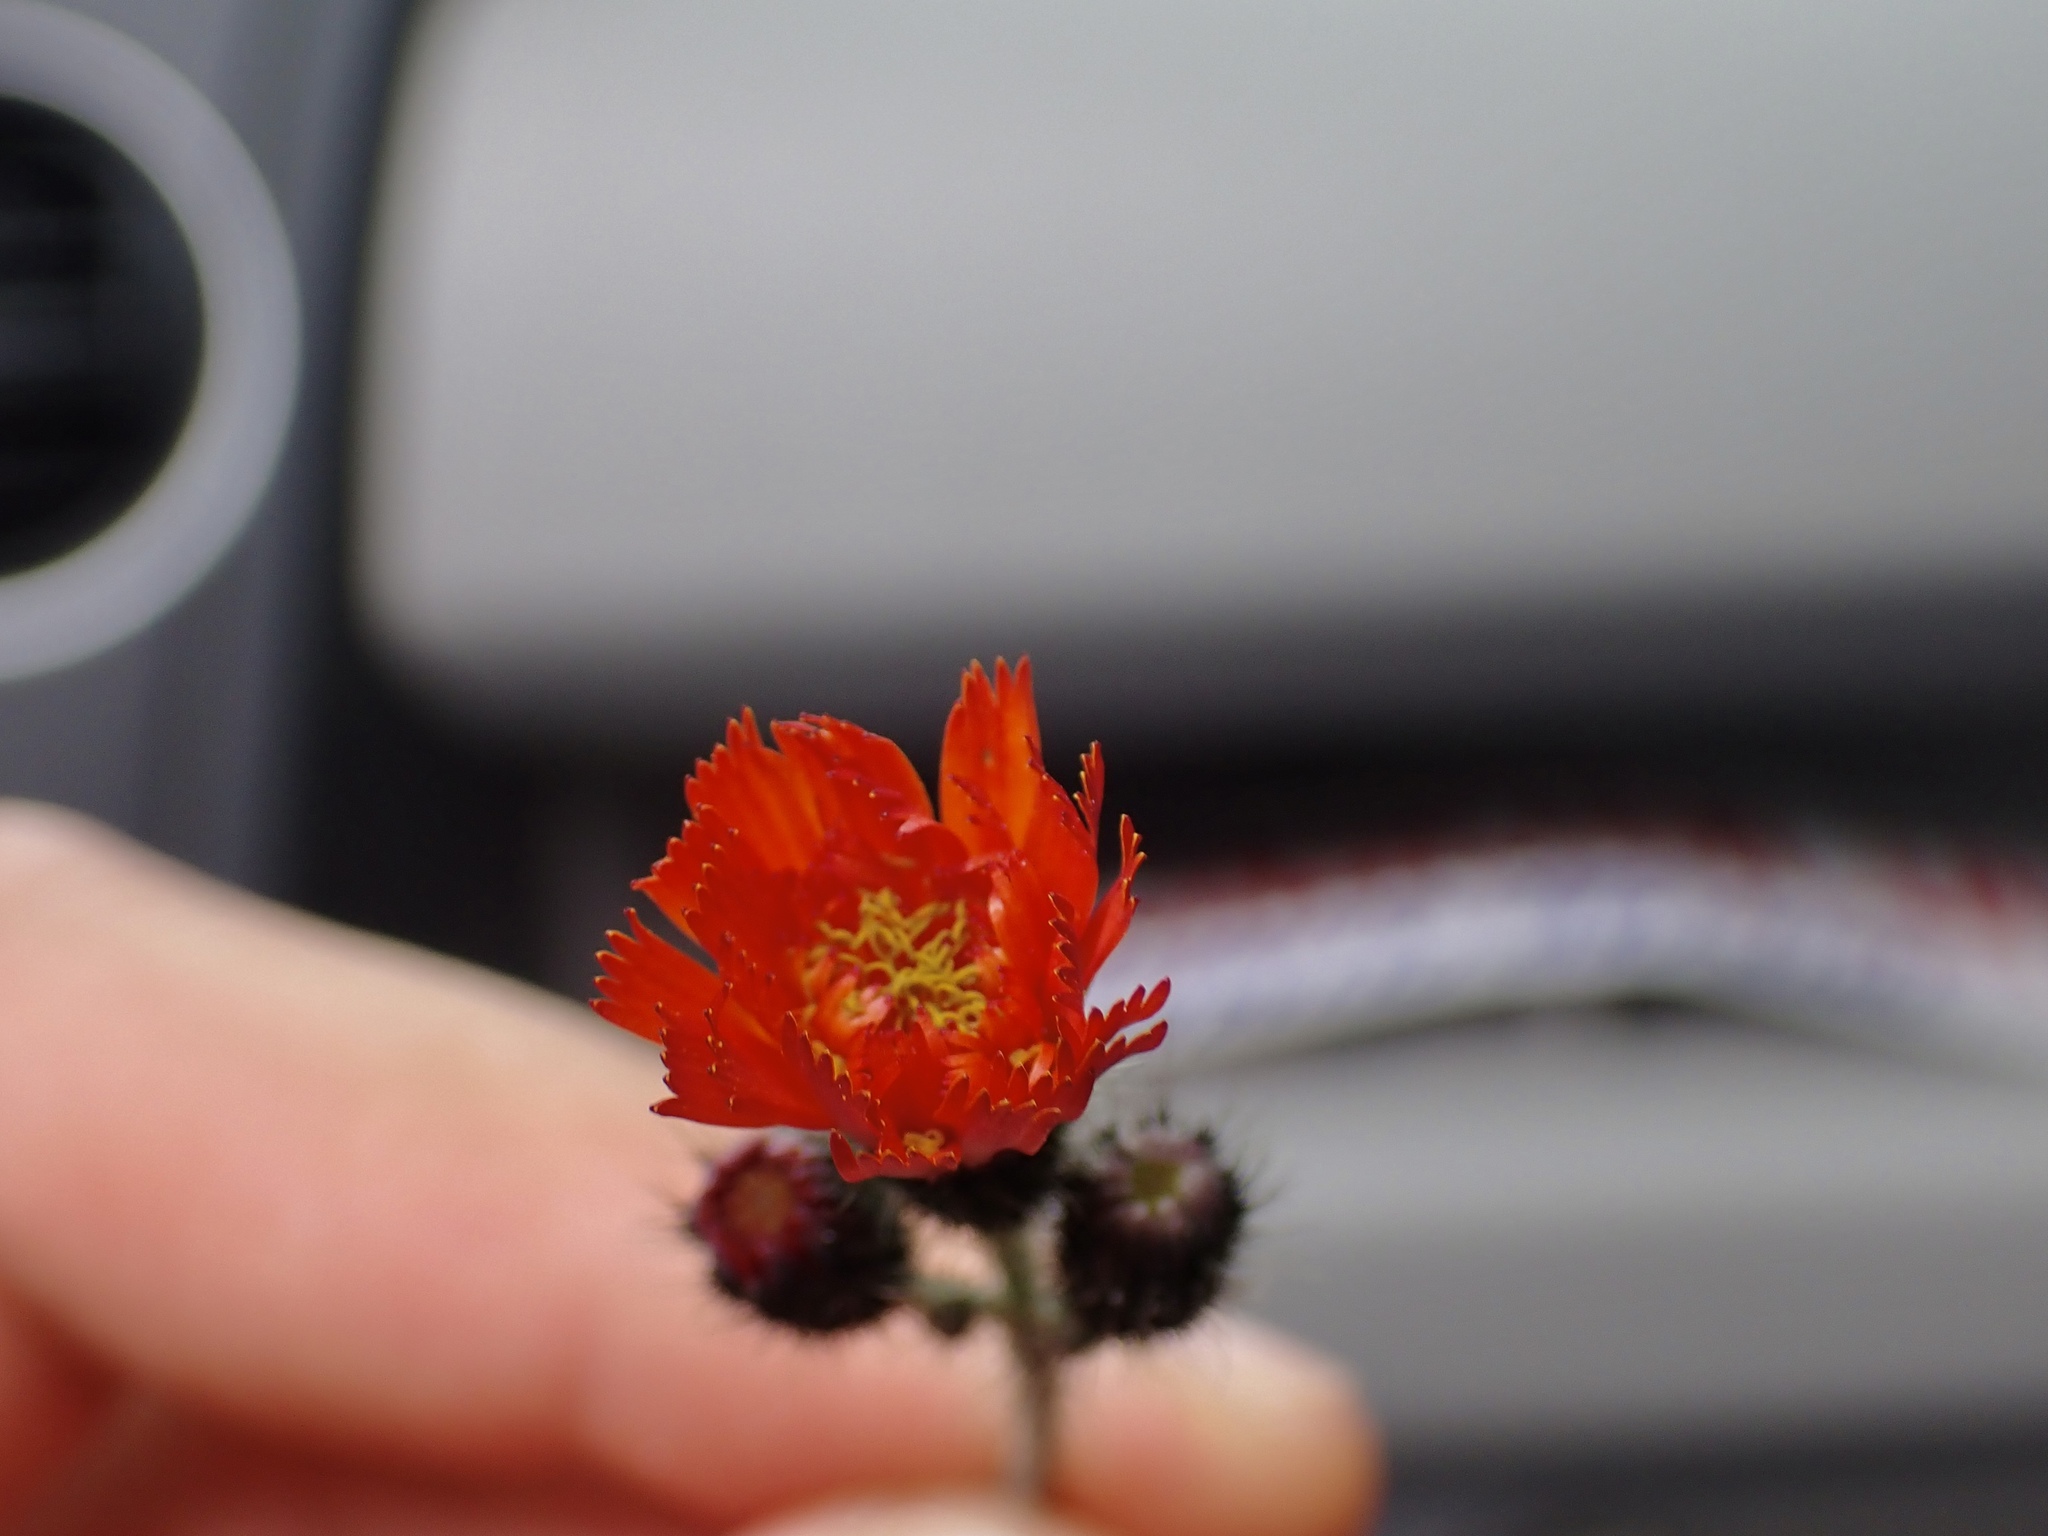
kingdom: Plantae
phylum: Tracheophyta
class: Magnoliopsida
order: Asterales
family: Asteraceae
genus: Pilosella
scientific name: Pilosella aurantiaca
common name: Fox-and-cubs
